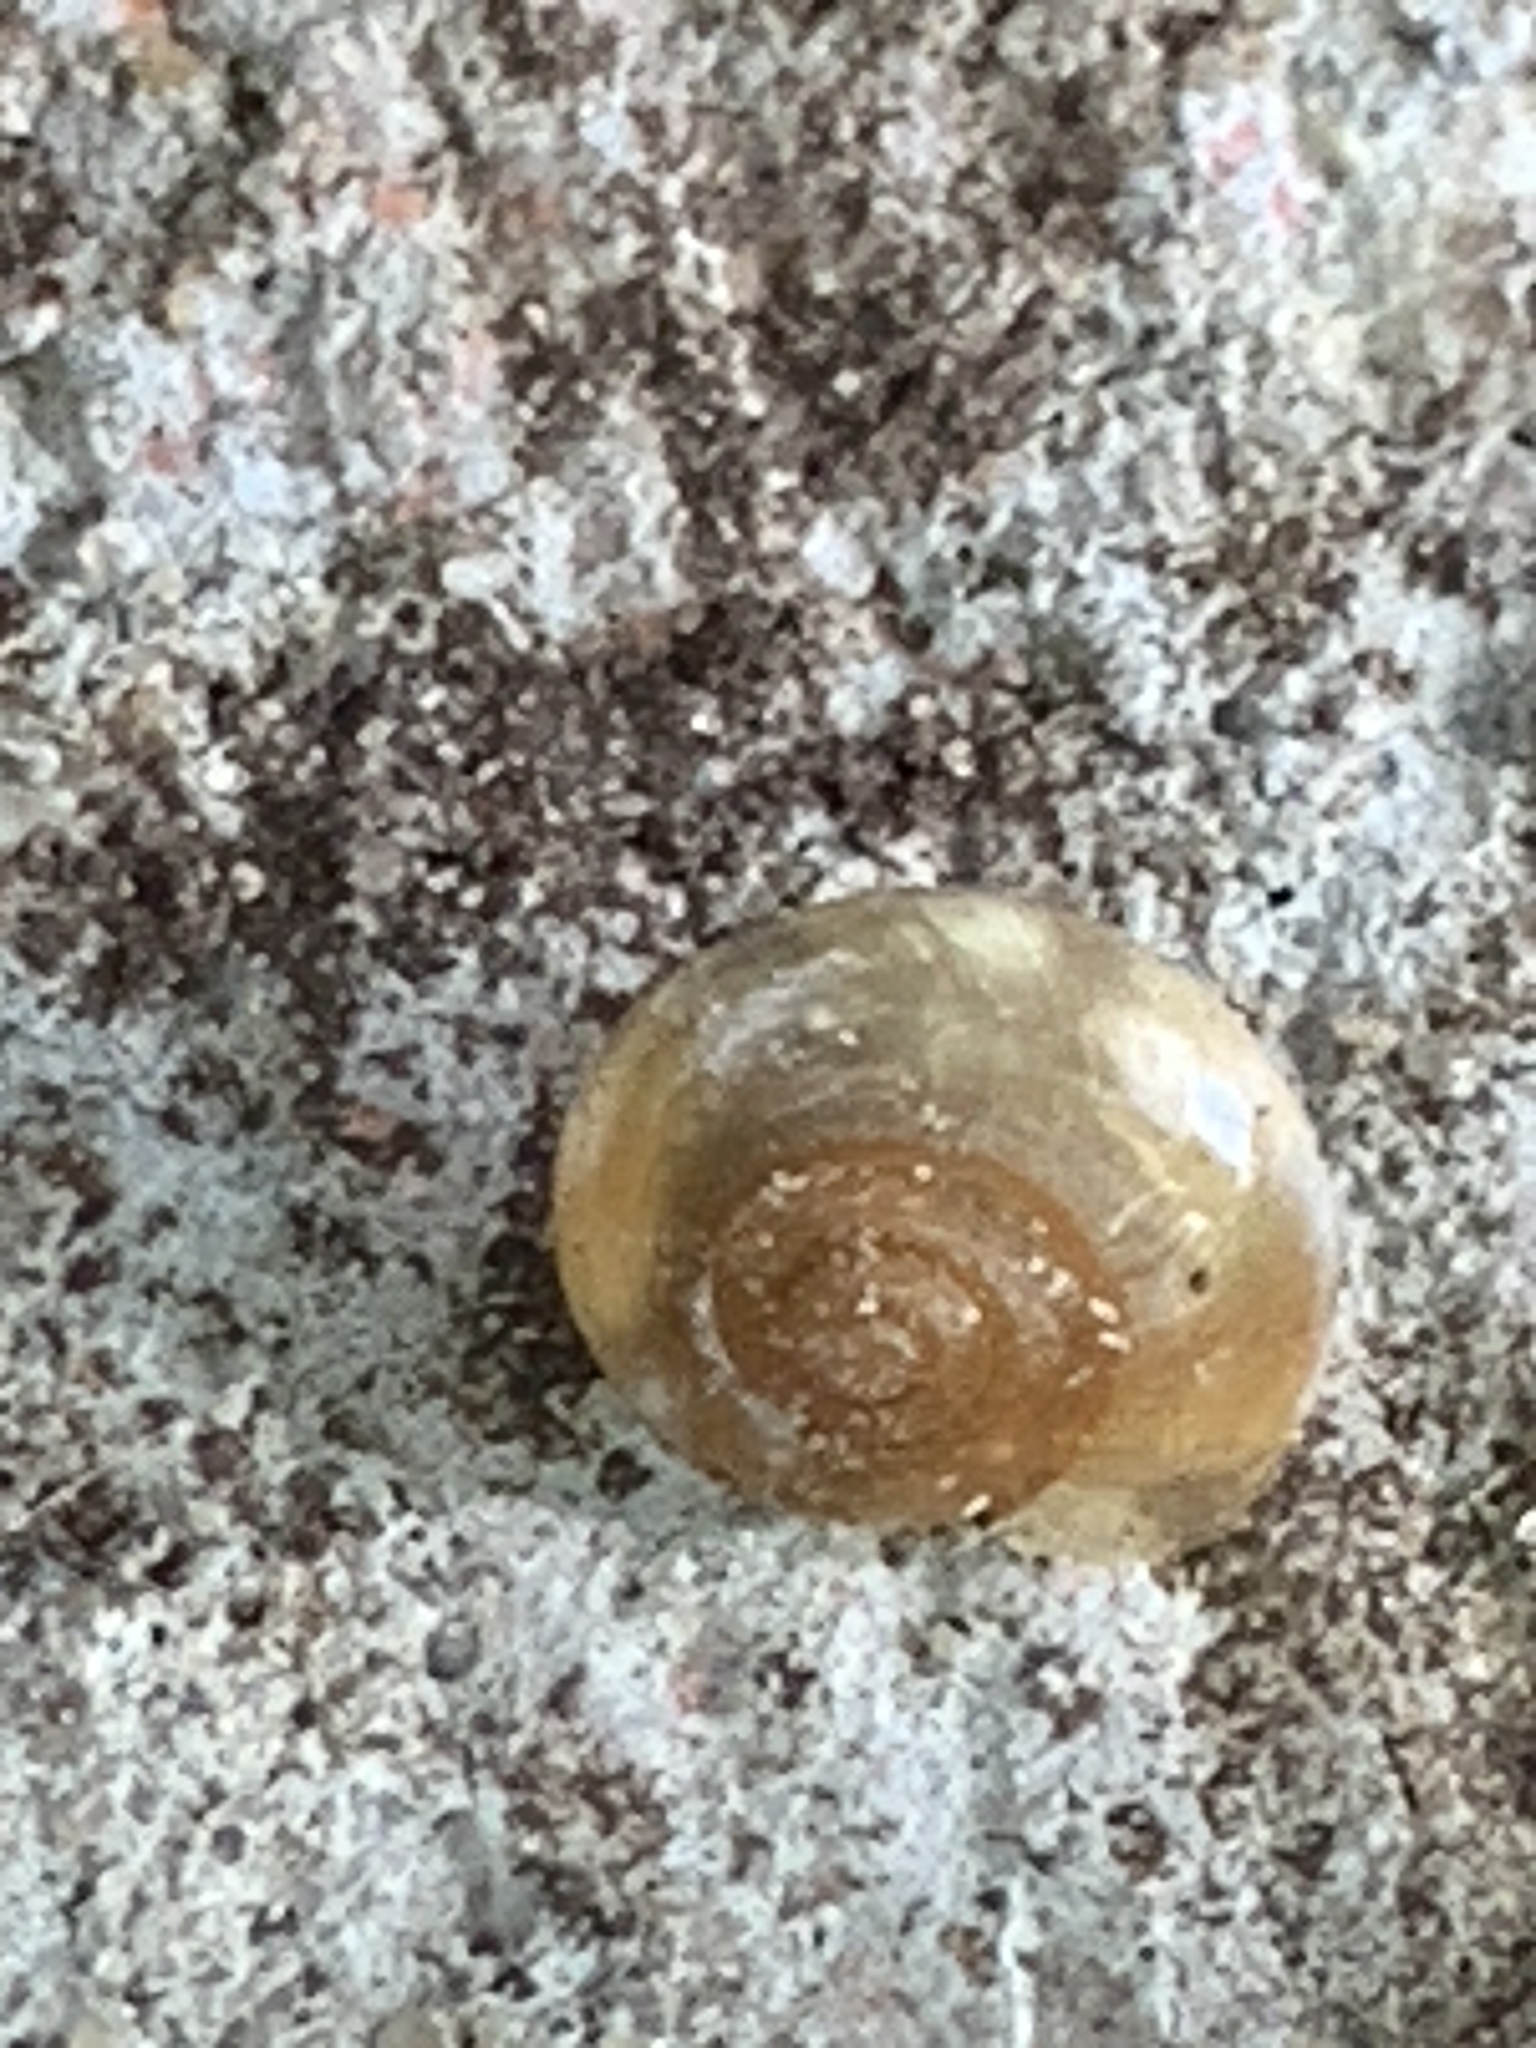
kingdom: Animalia
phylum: Mollusca
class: Gastropoda
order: Stylommatophora
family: Oxychilidae
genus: Oxychilus
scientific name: Oxychilus draparnaudi
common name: Draparnaud's glass snail
